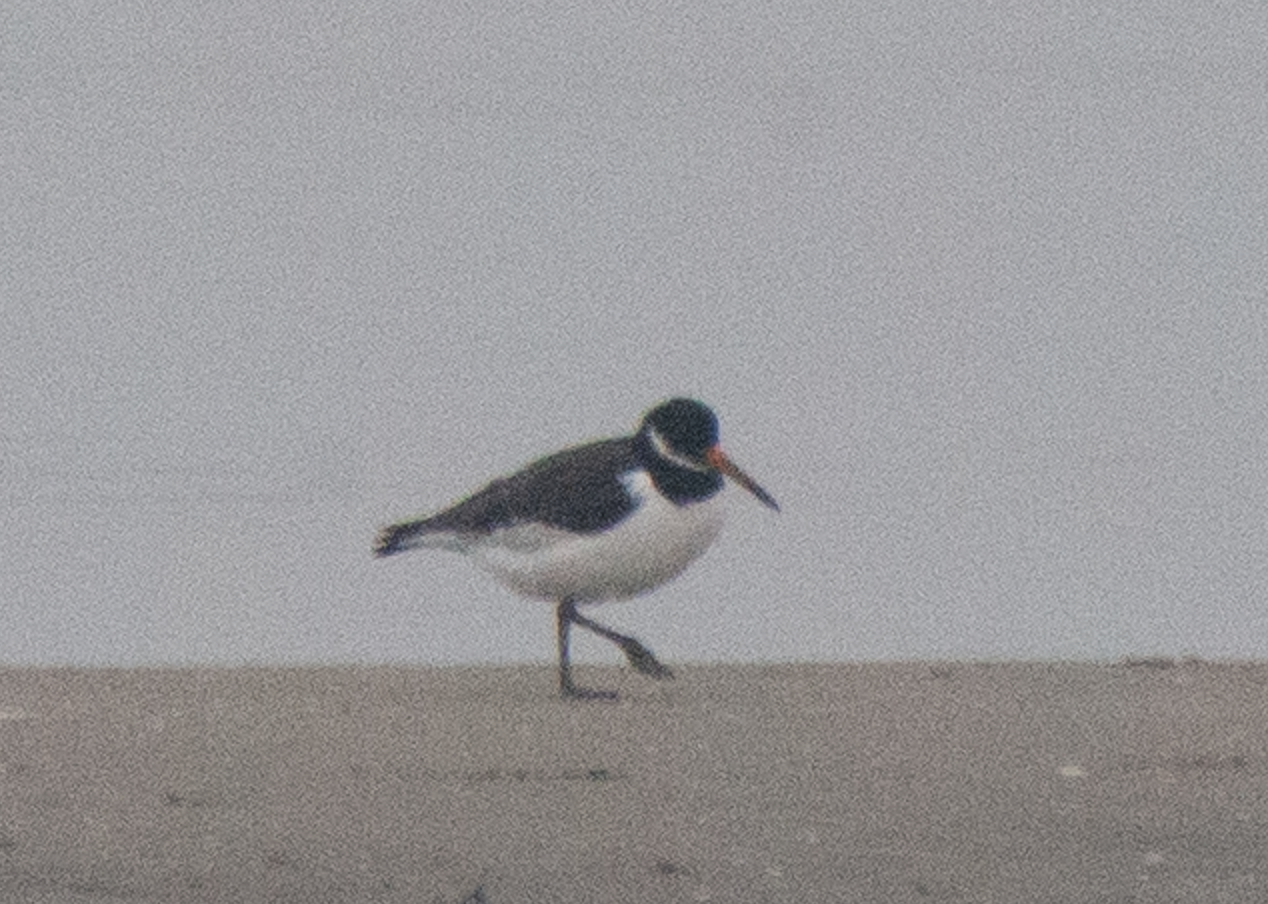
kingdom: Animalia
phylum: Chordata
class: Aves
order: Charadriiformes
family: Haematopodidae
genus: Haematopus
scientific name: Haematopus ostralegus
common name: Eurasian oystercatcher
